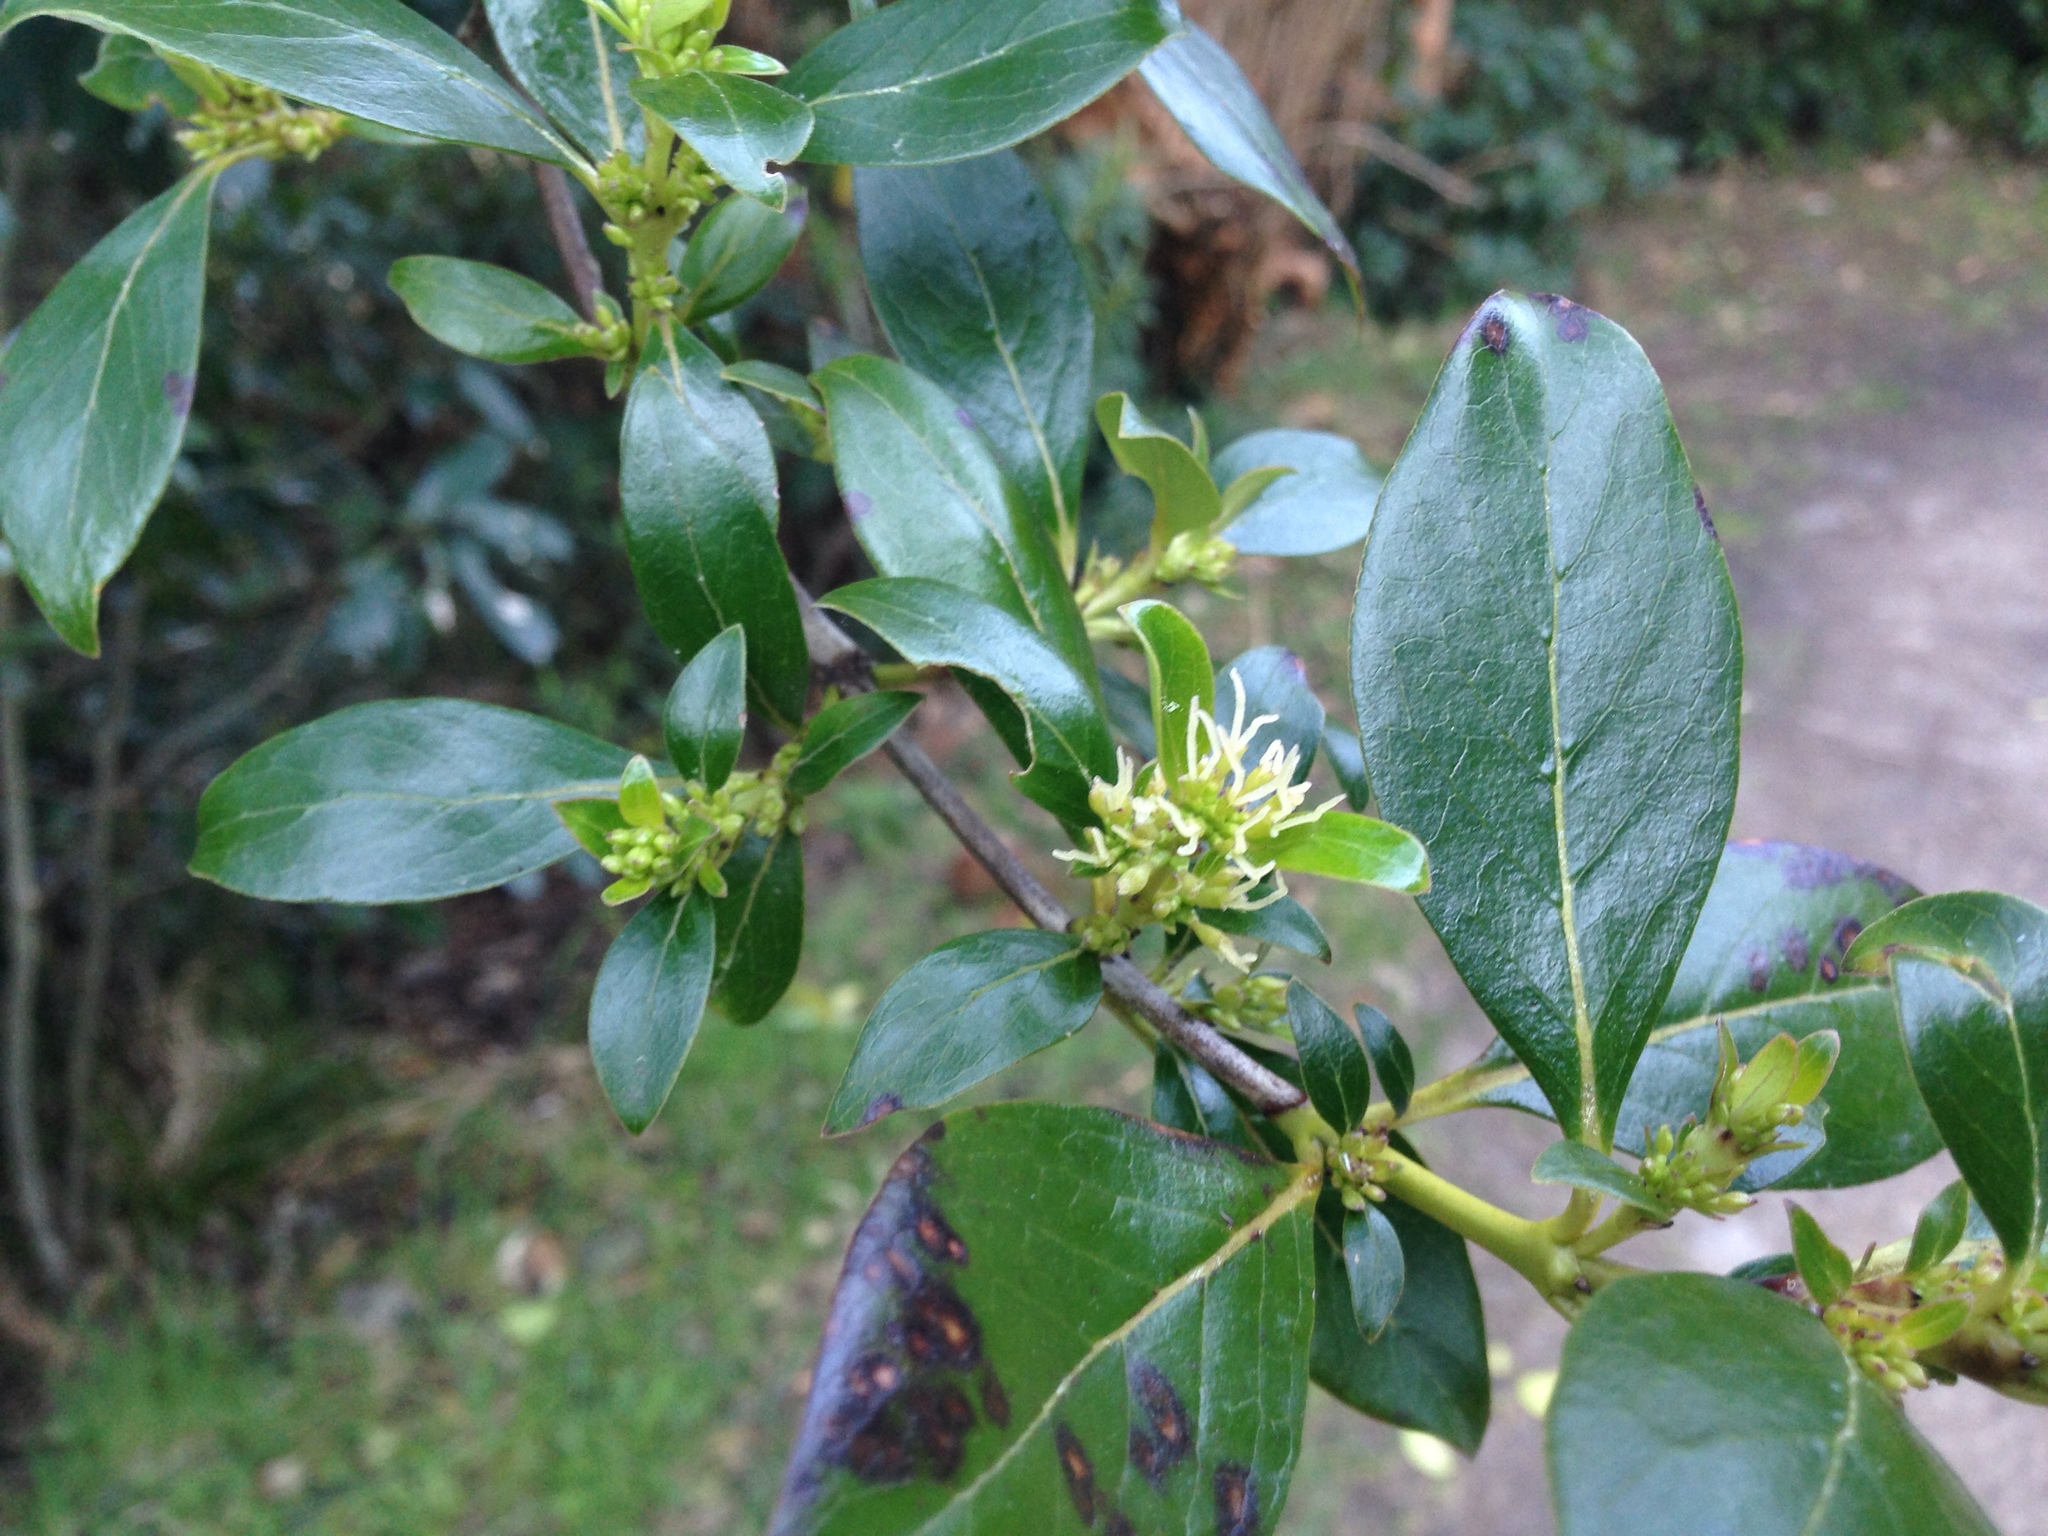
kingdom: Plantae
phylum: Tracheophyta
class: Magnoliopsida
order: Gentianales
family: Rubiaceae
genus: Coprosma
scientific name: Coprosma robusta
